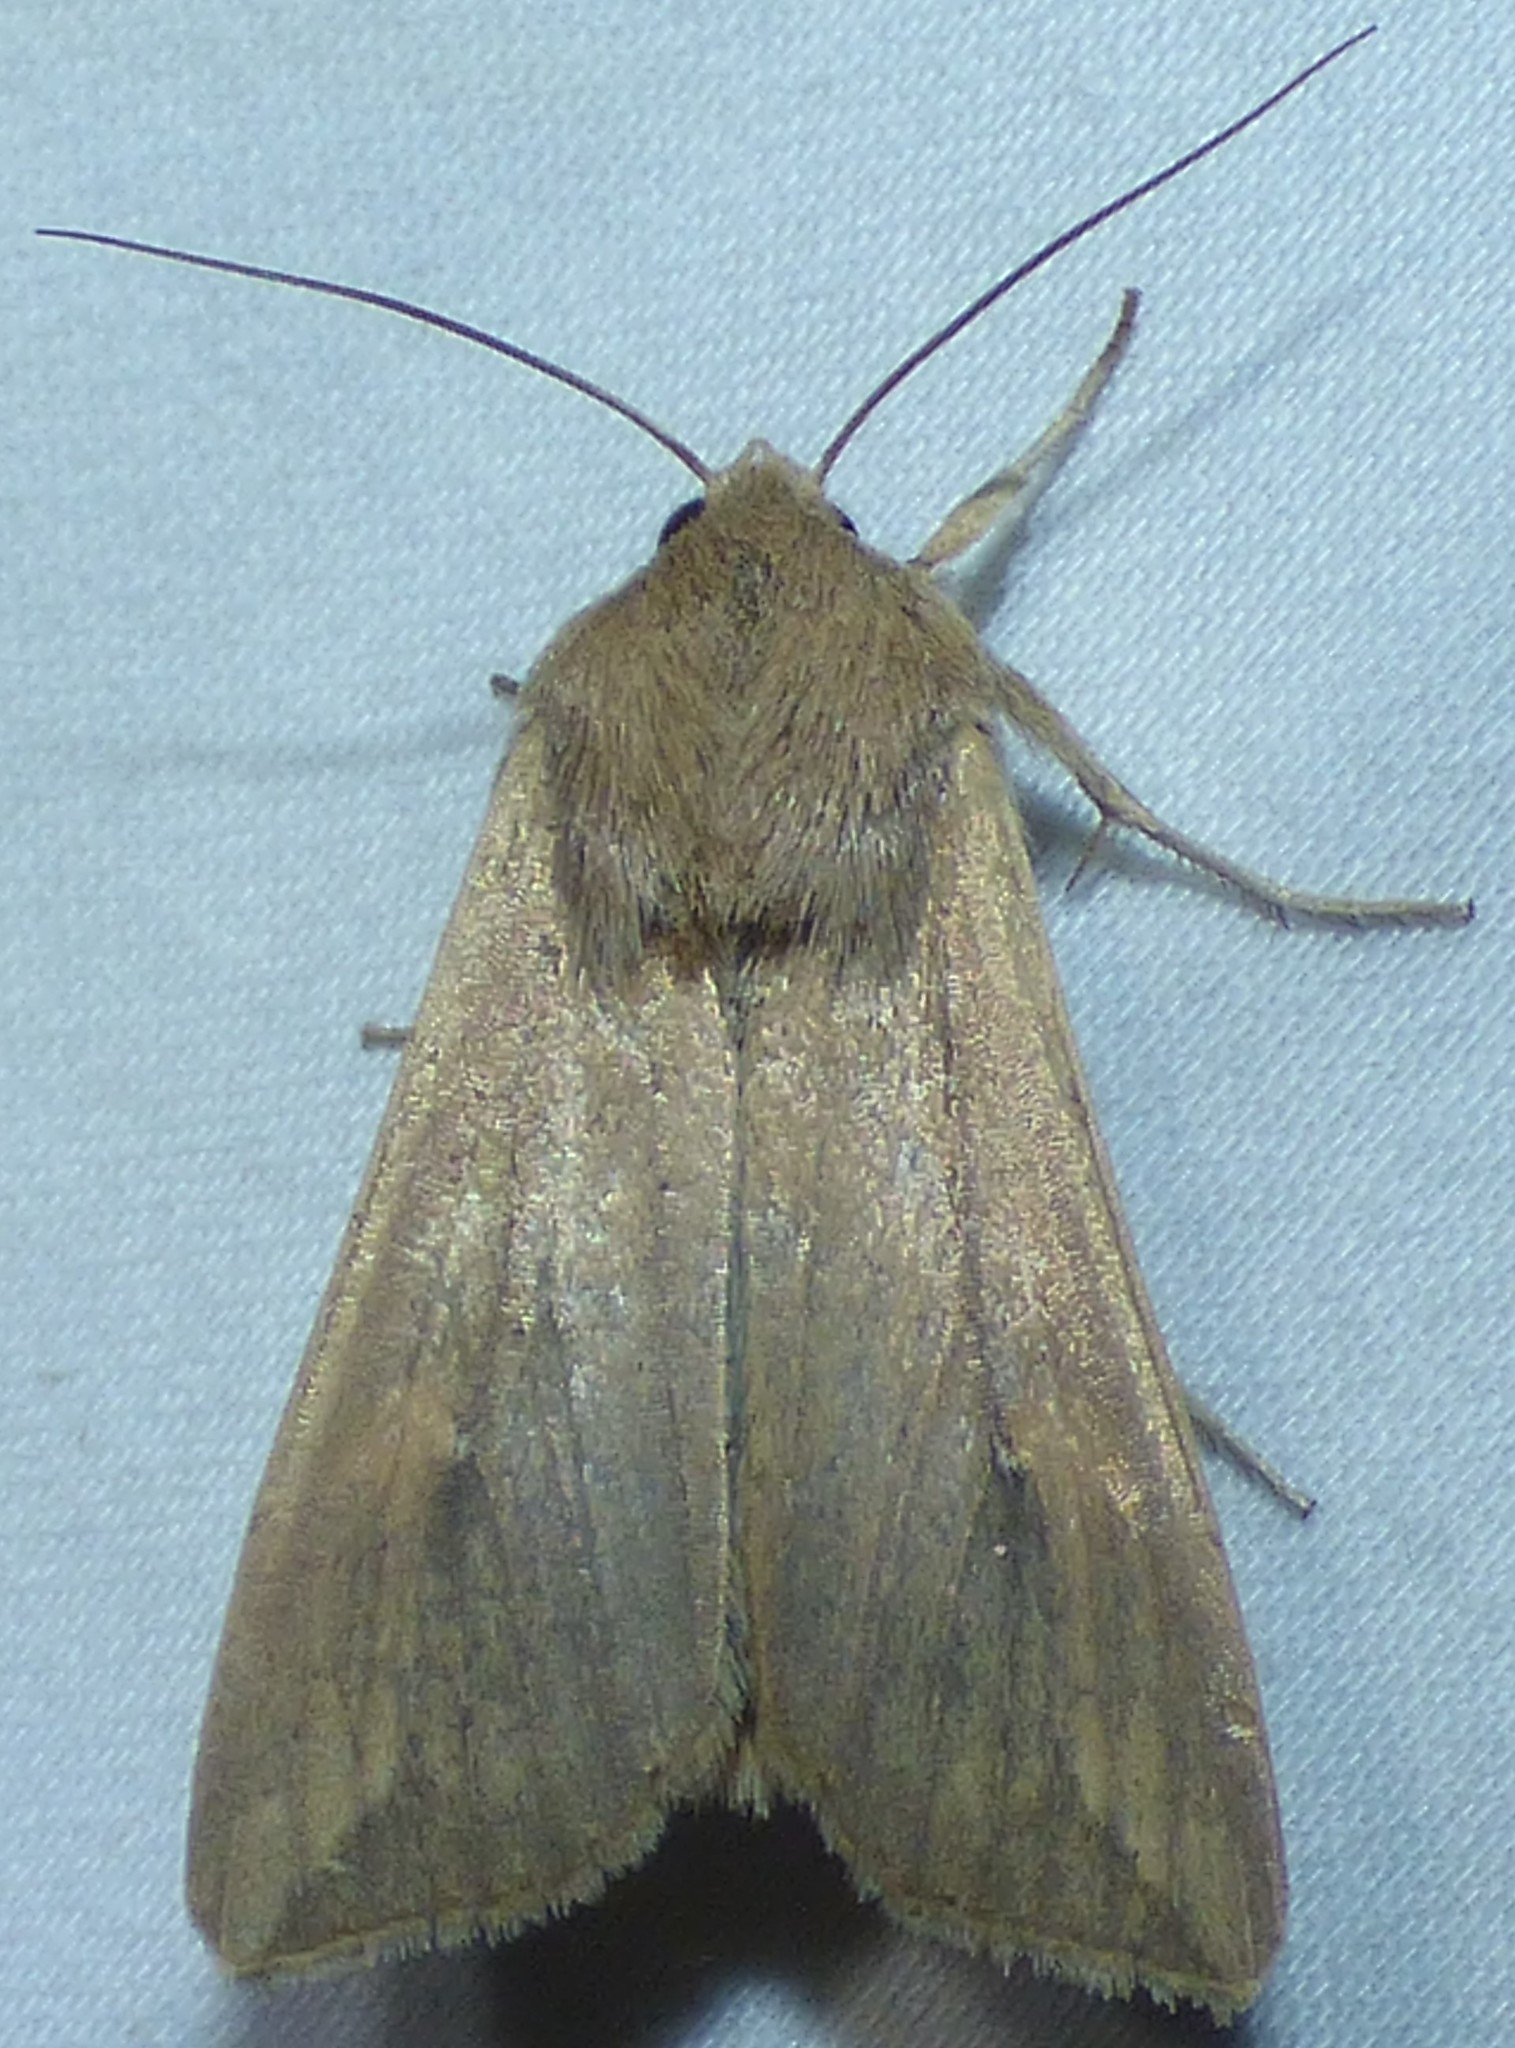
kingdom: Animalia
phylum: Arthropoda
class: Insecta
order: Lepidoptera
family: Noctuidae
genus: Mythimna
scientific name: Mythimna unipuncta
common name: White-speck
